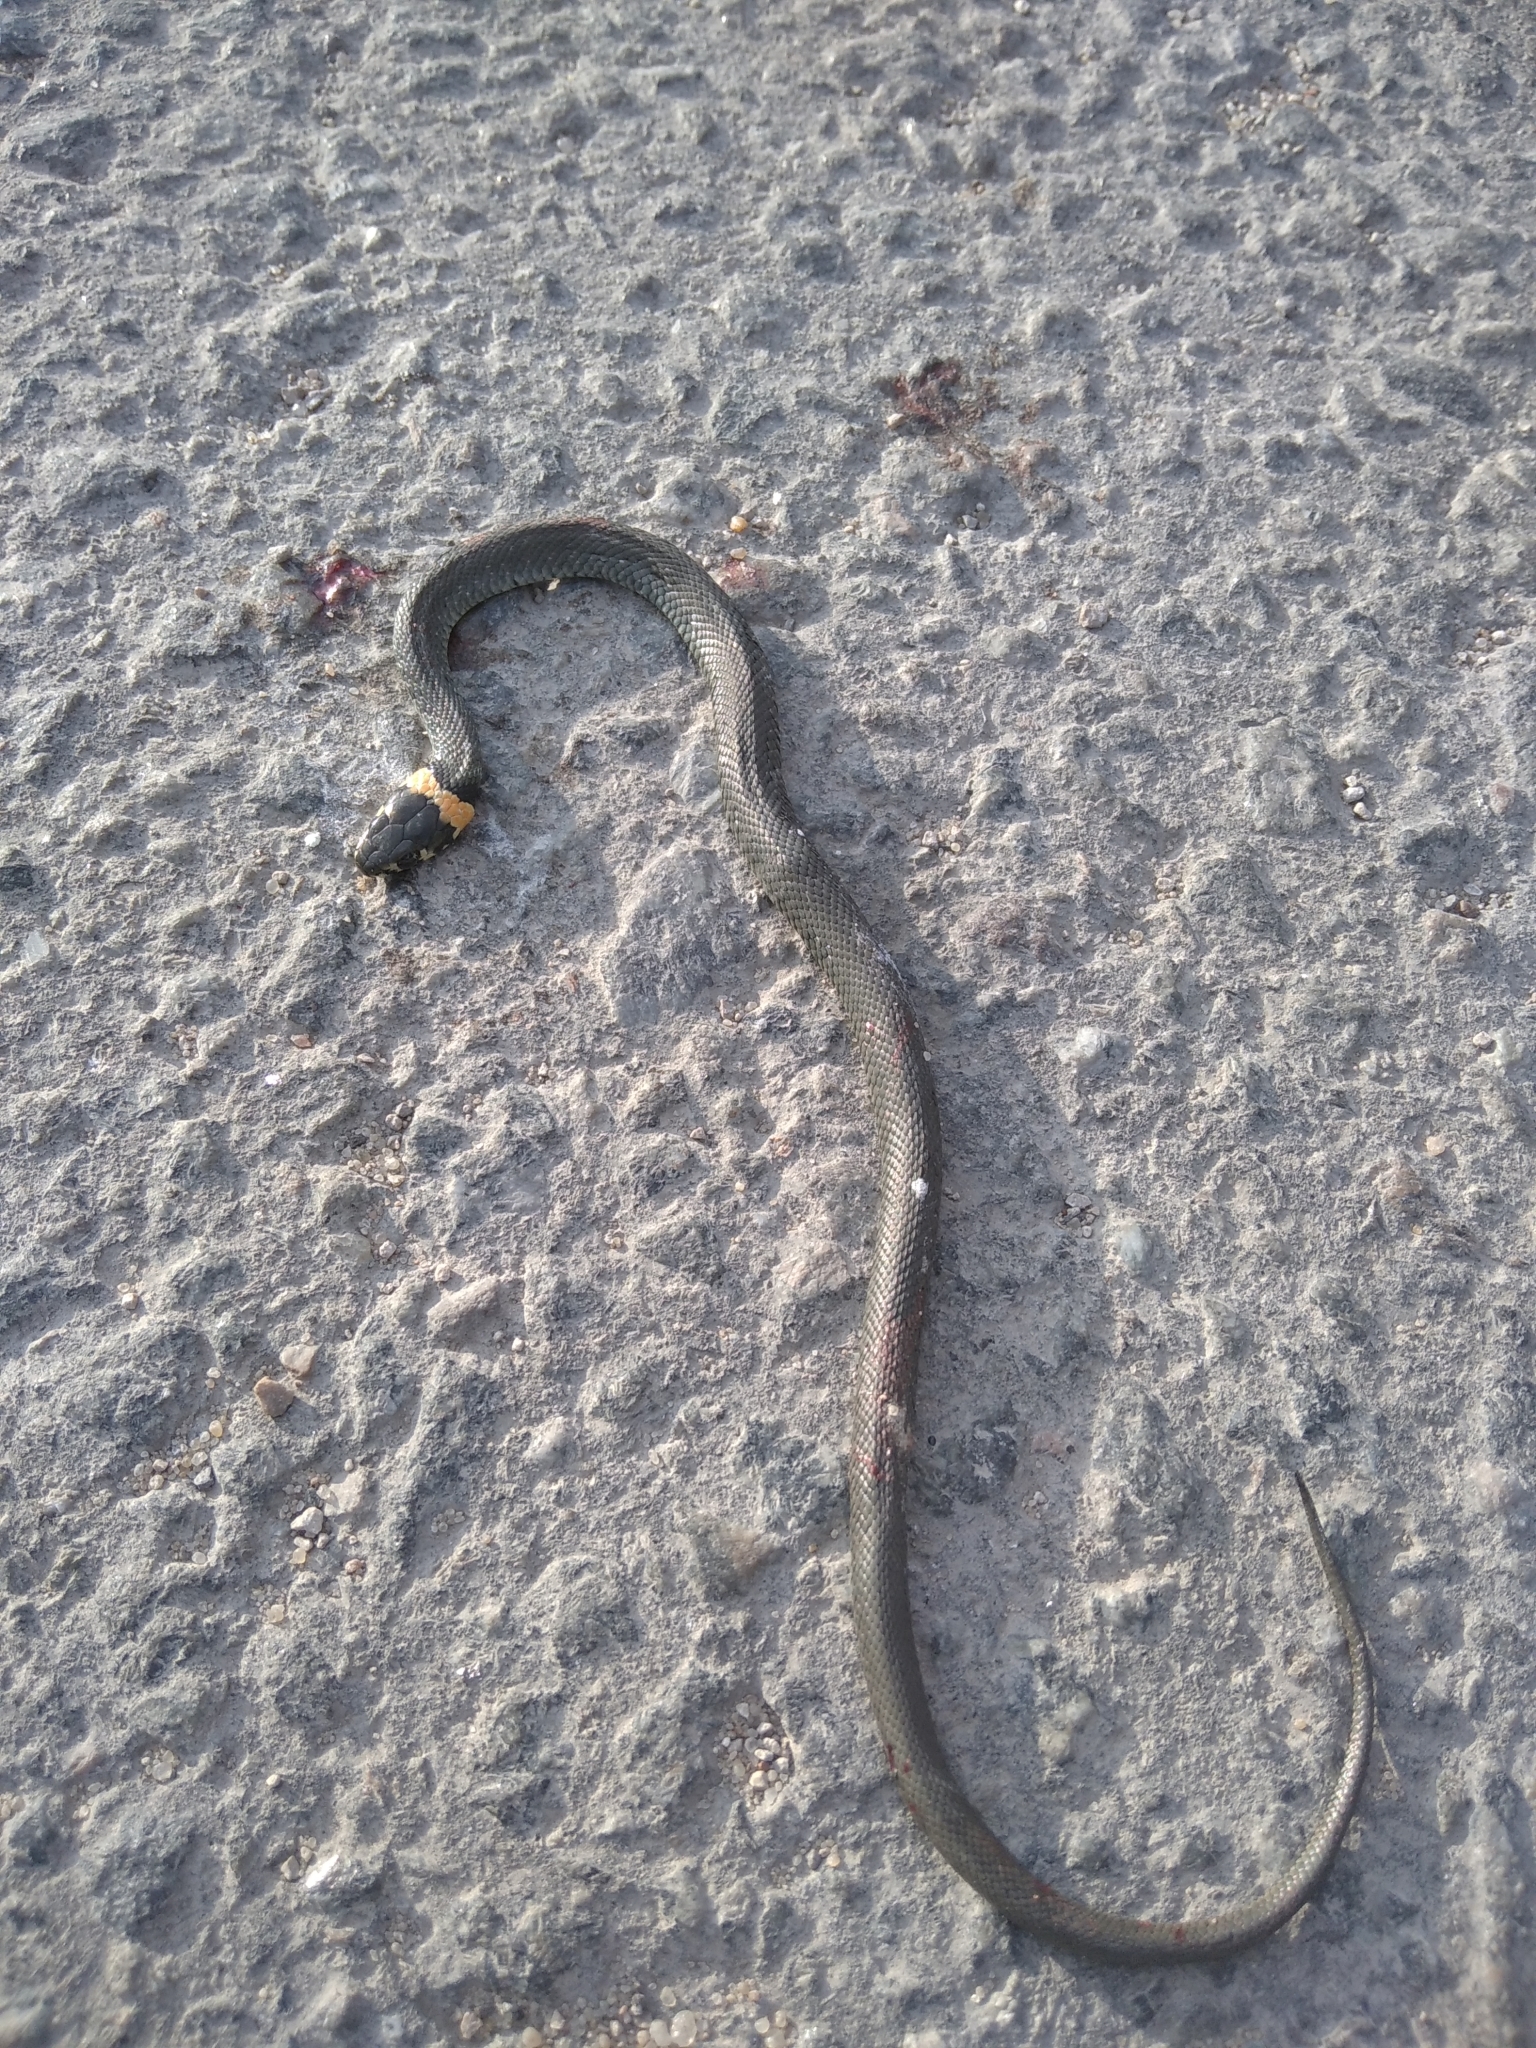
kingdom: Animalia
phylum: Chordata
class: Squamata
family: Colubridae
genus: Natrix
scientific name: Natrix natrix
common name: Grass snake
